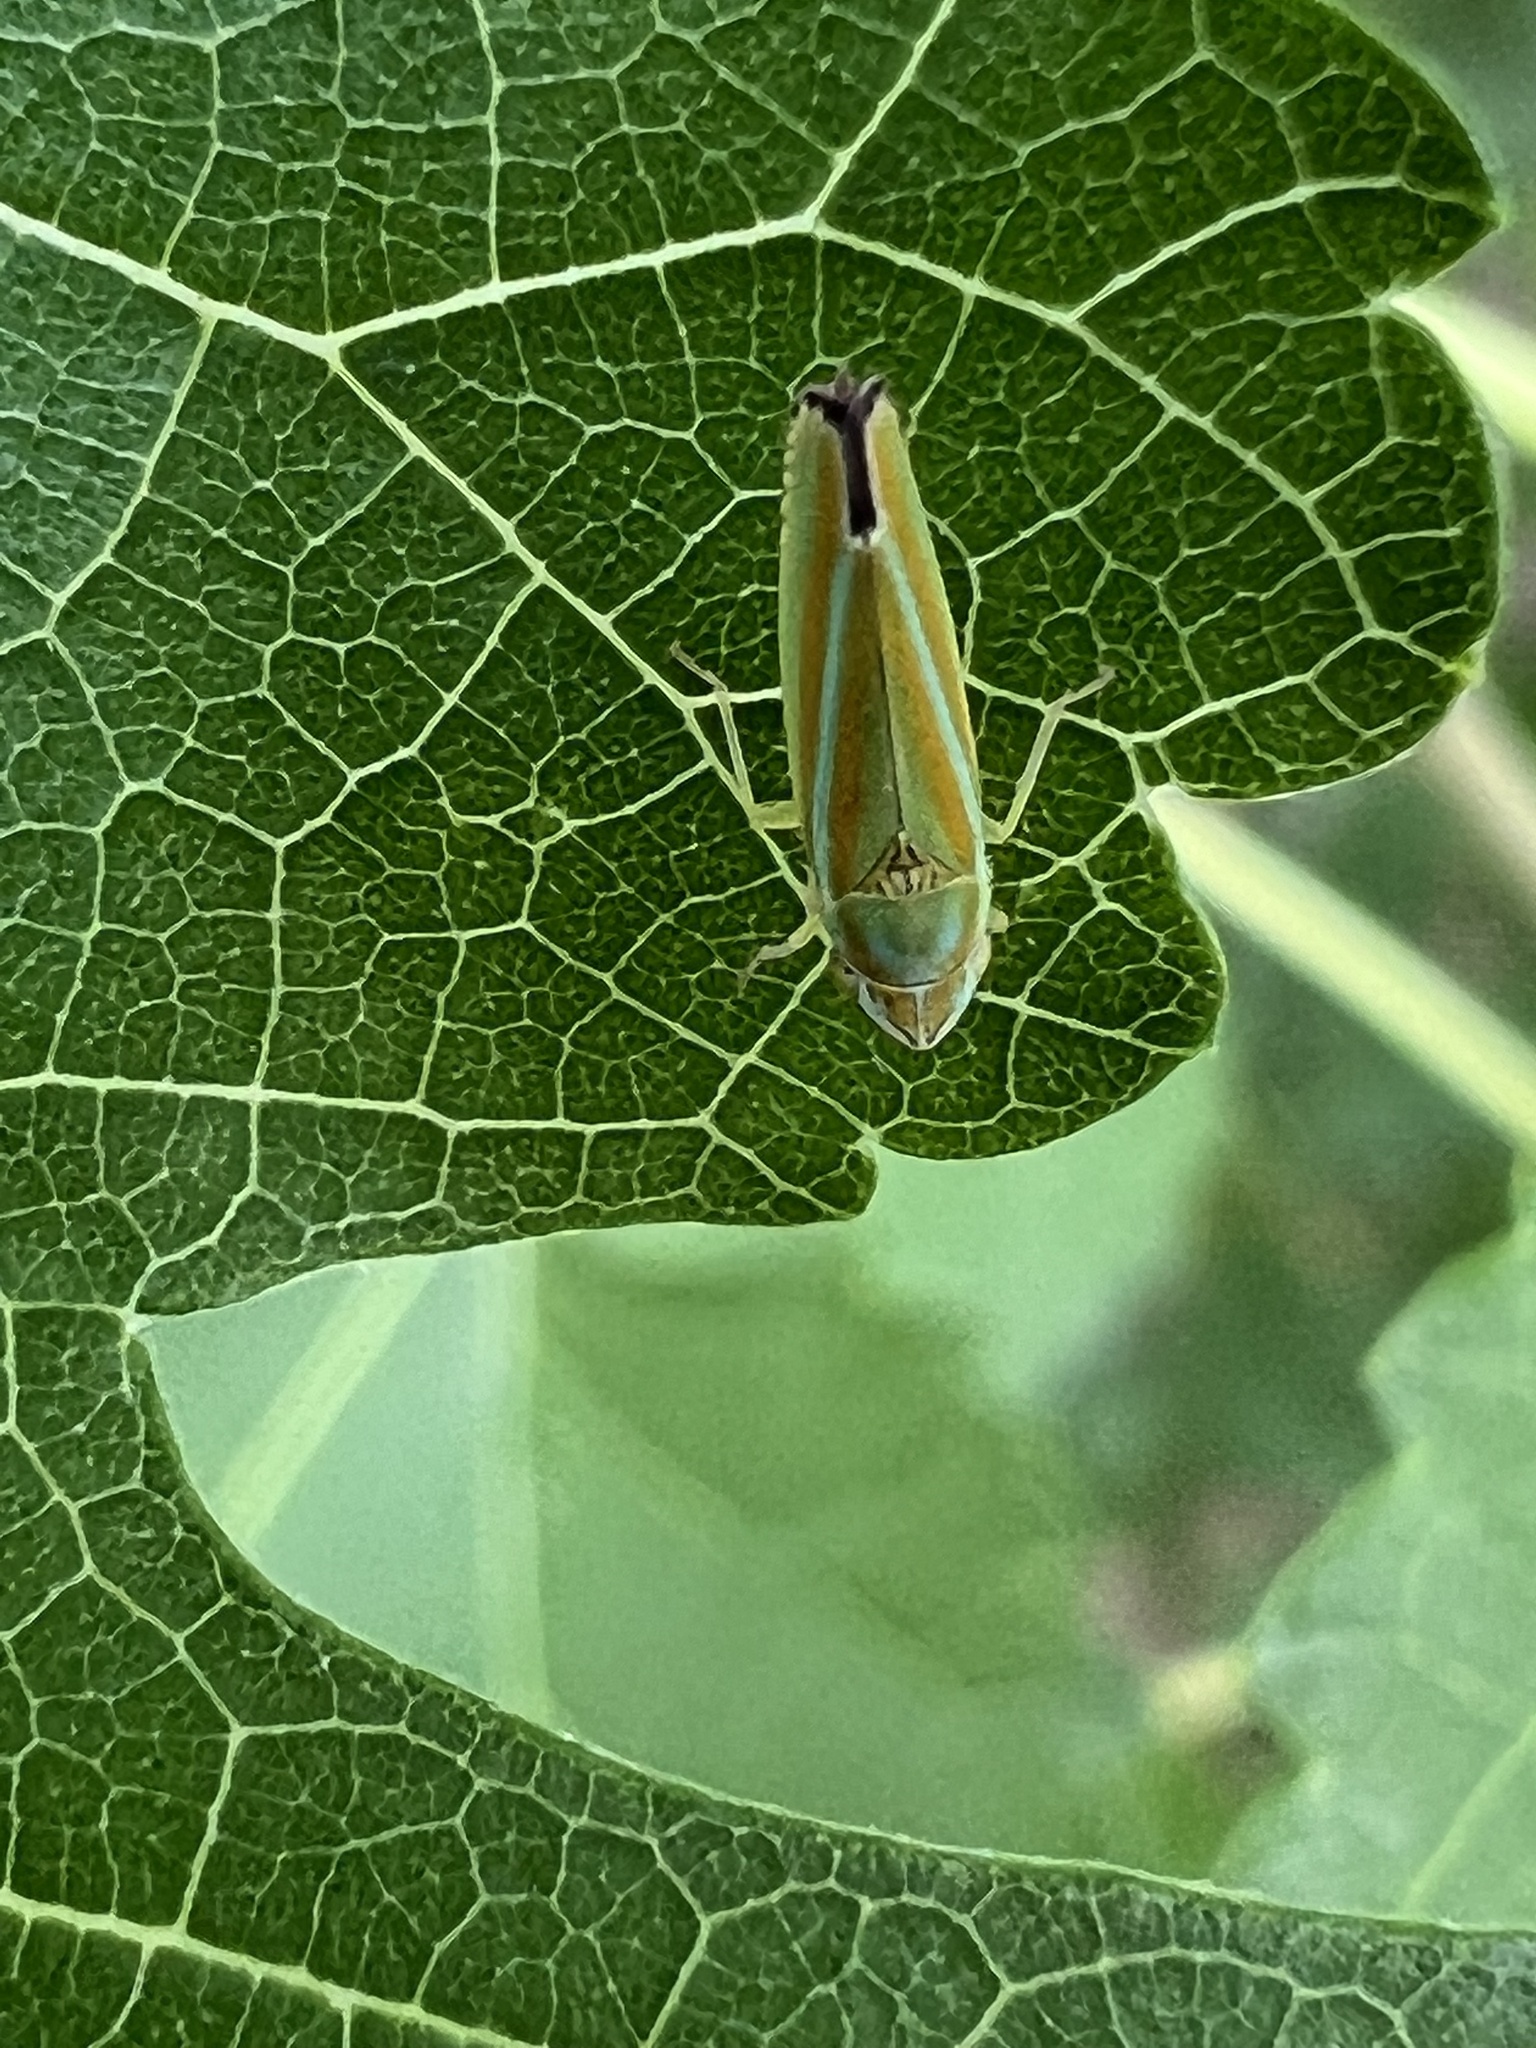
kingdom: Animalia
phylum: Arthropoda
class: Insecta
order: Hemiptera
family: Cicadellidae
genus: Graphocephala
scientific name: Graphocephala versuta
